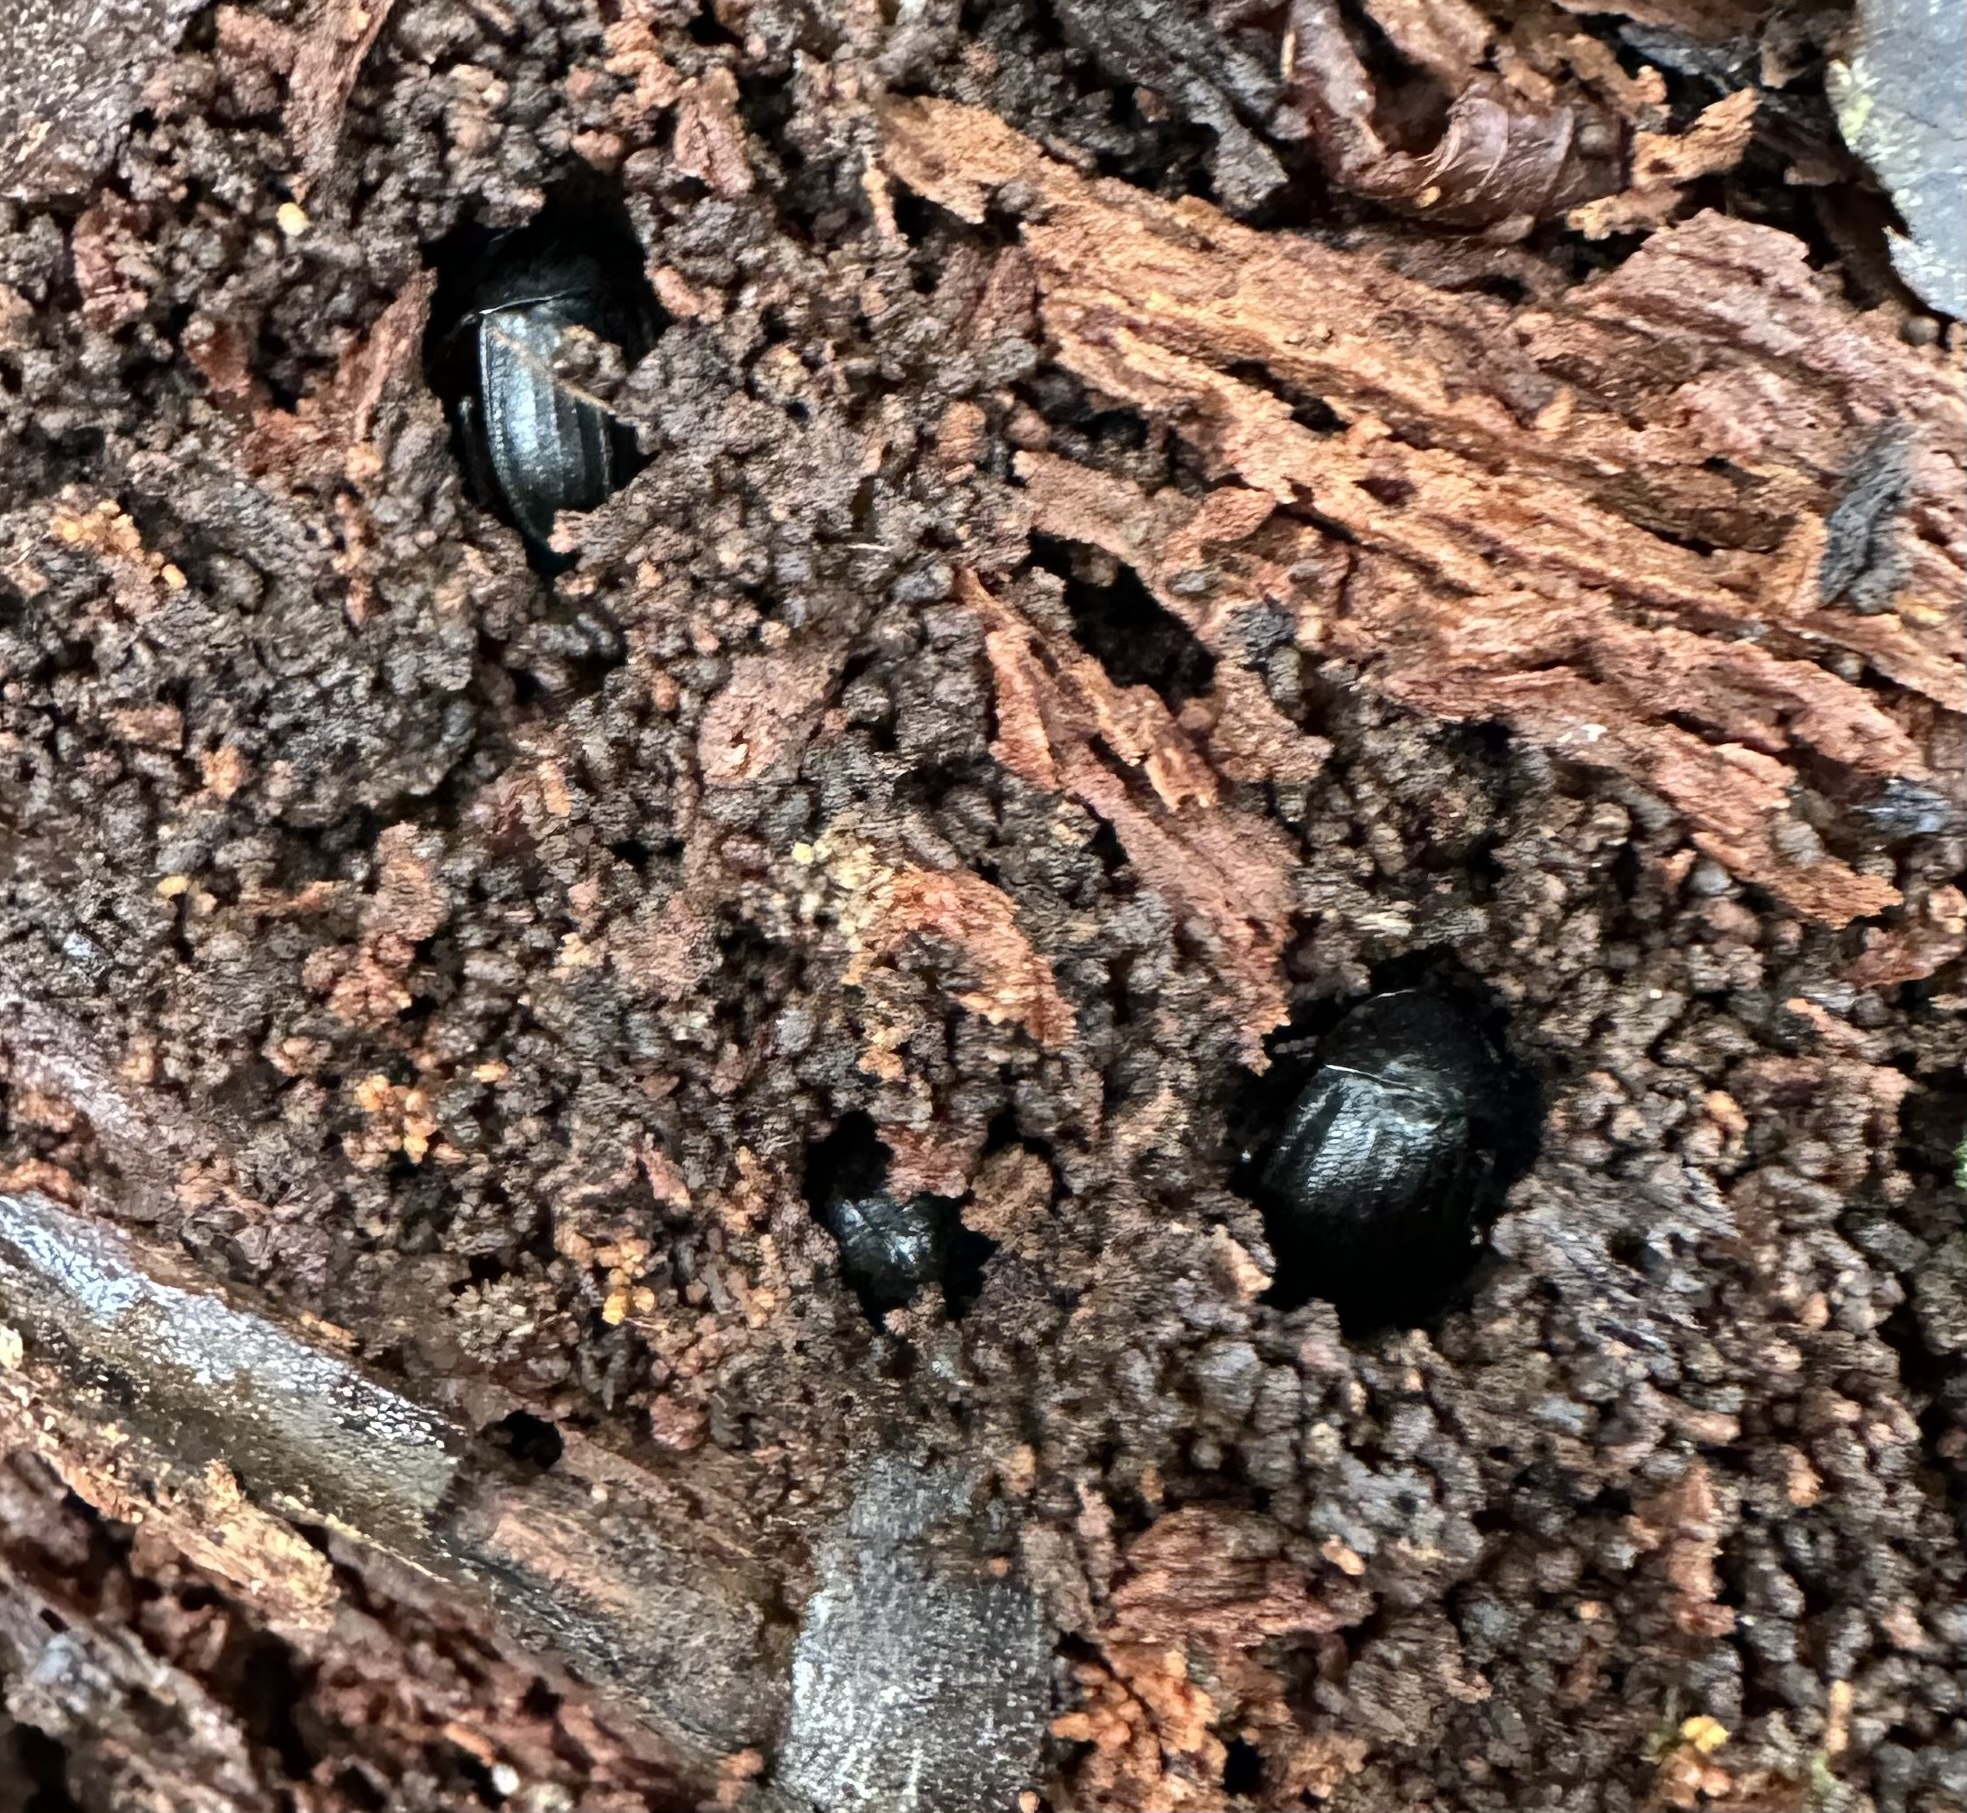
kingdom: Animalia
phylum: Arthropoda
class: Insecta
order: Coleoptera
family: Staphylinidae
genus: Silpha
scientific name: Silpha atrata
